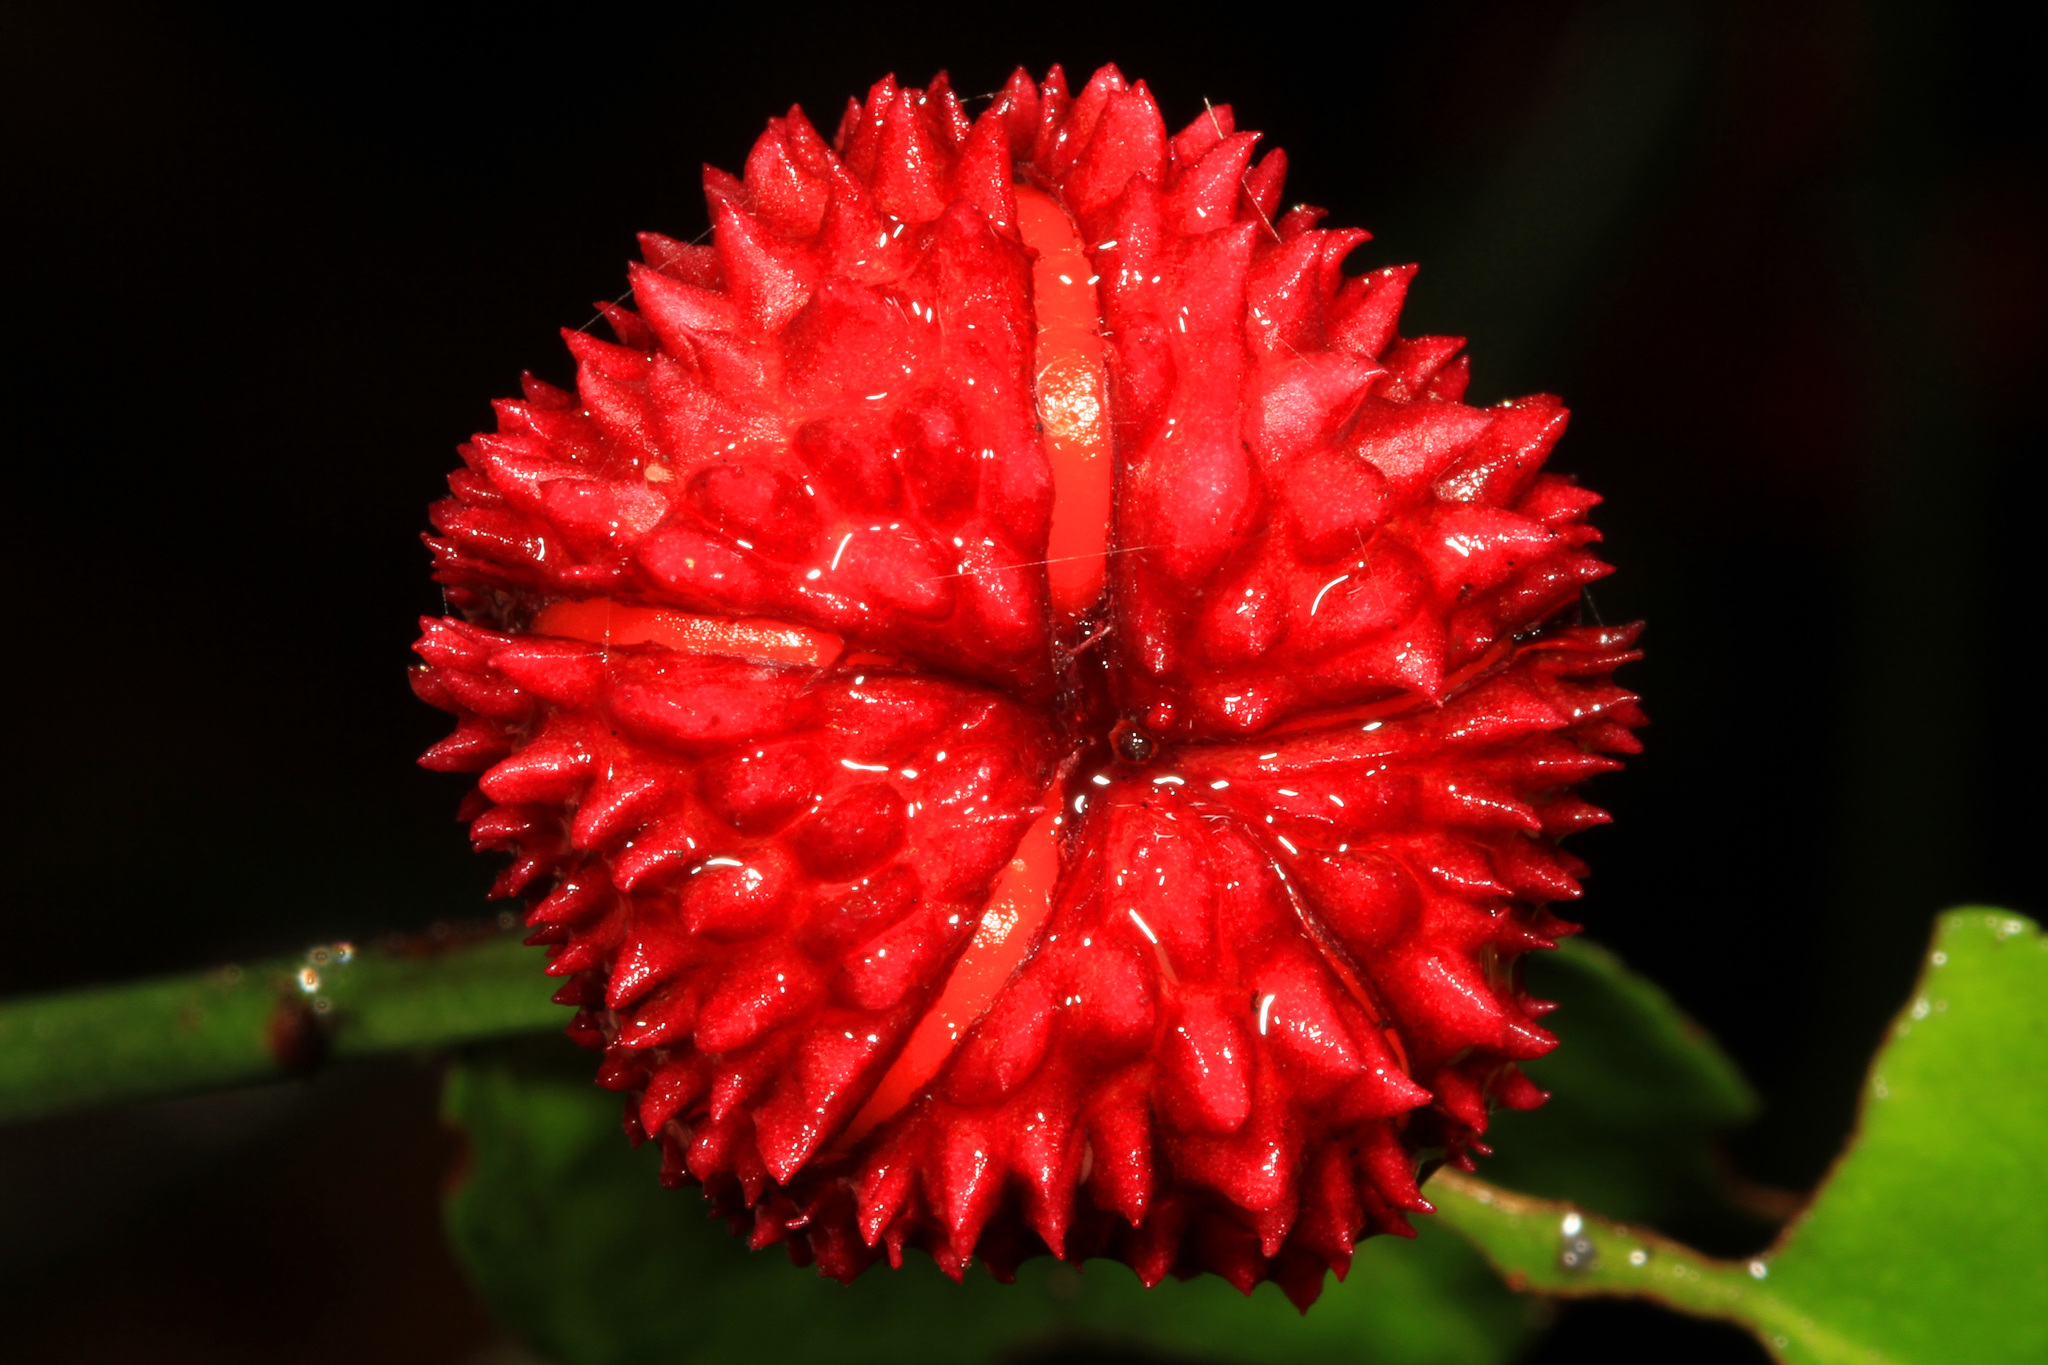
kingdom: Plantae
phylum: Tracheophyta
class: Magnoliopsida
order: Celastrales
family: Celastraceae
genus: Euonymus
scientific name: Euonymus americanus
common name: Bursting-heart
